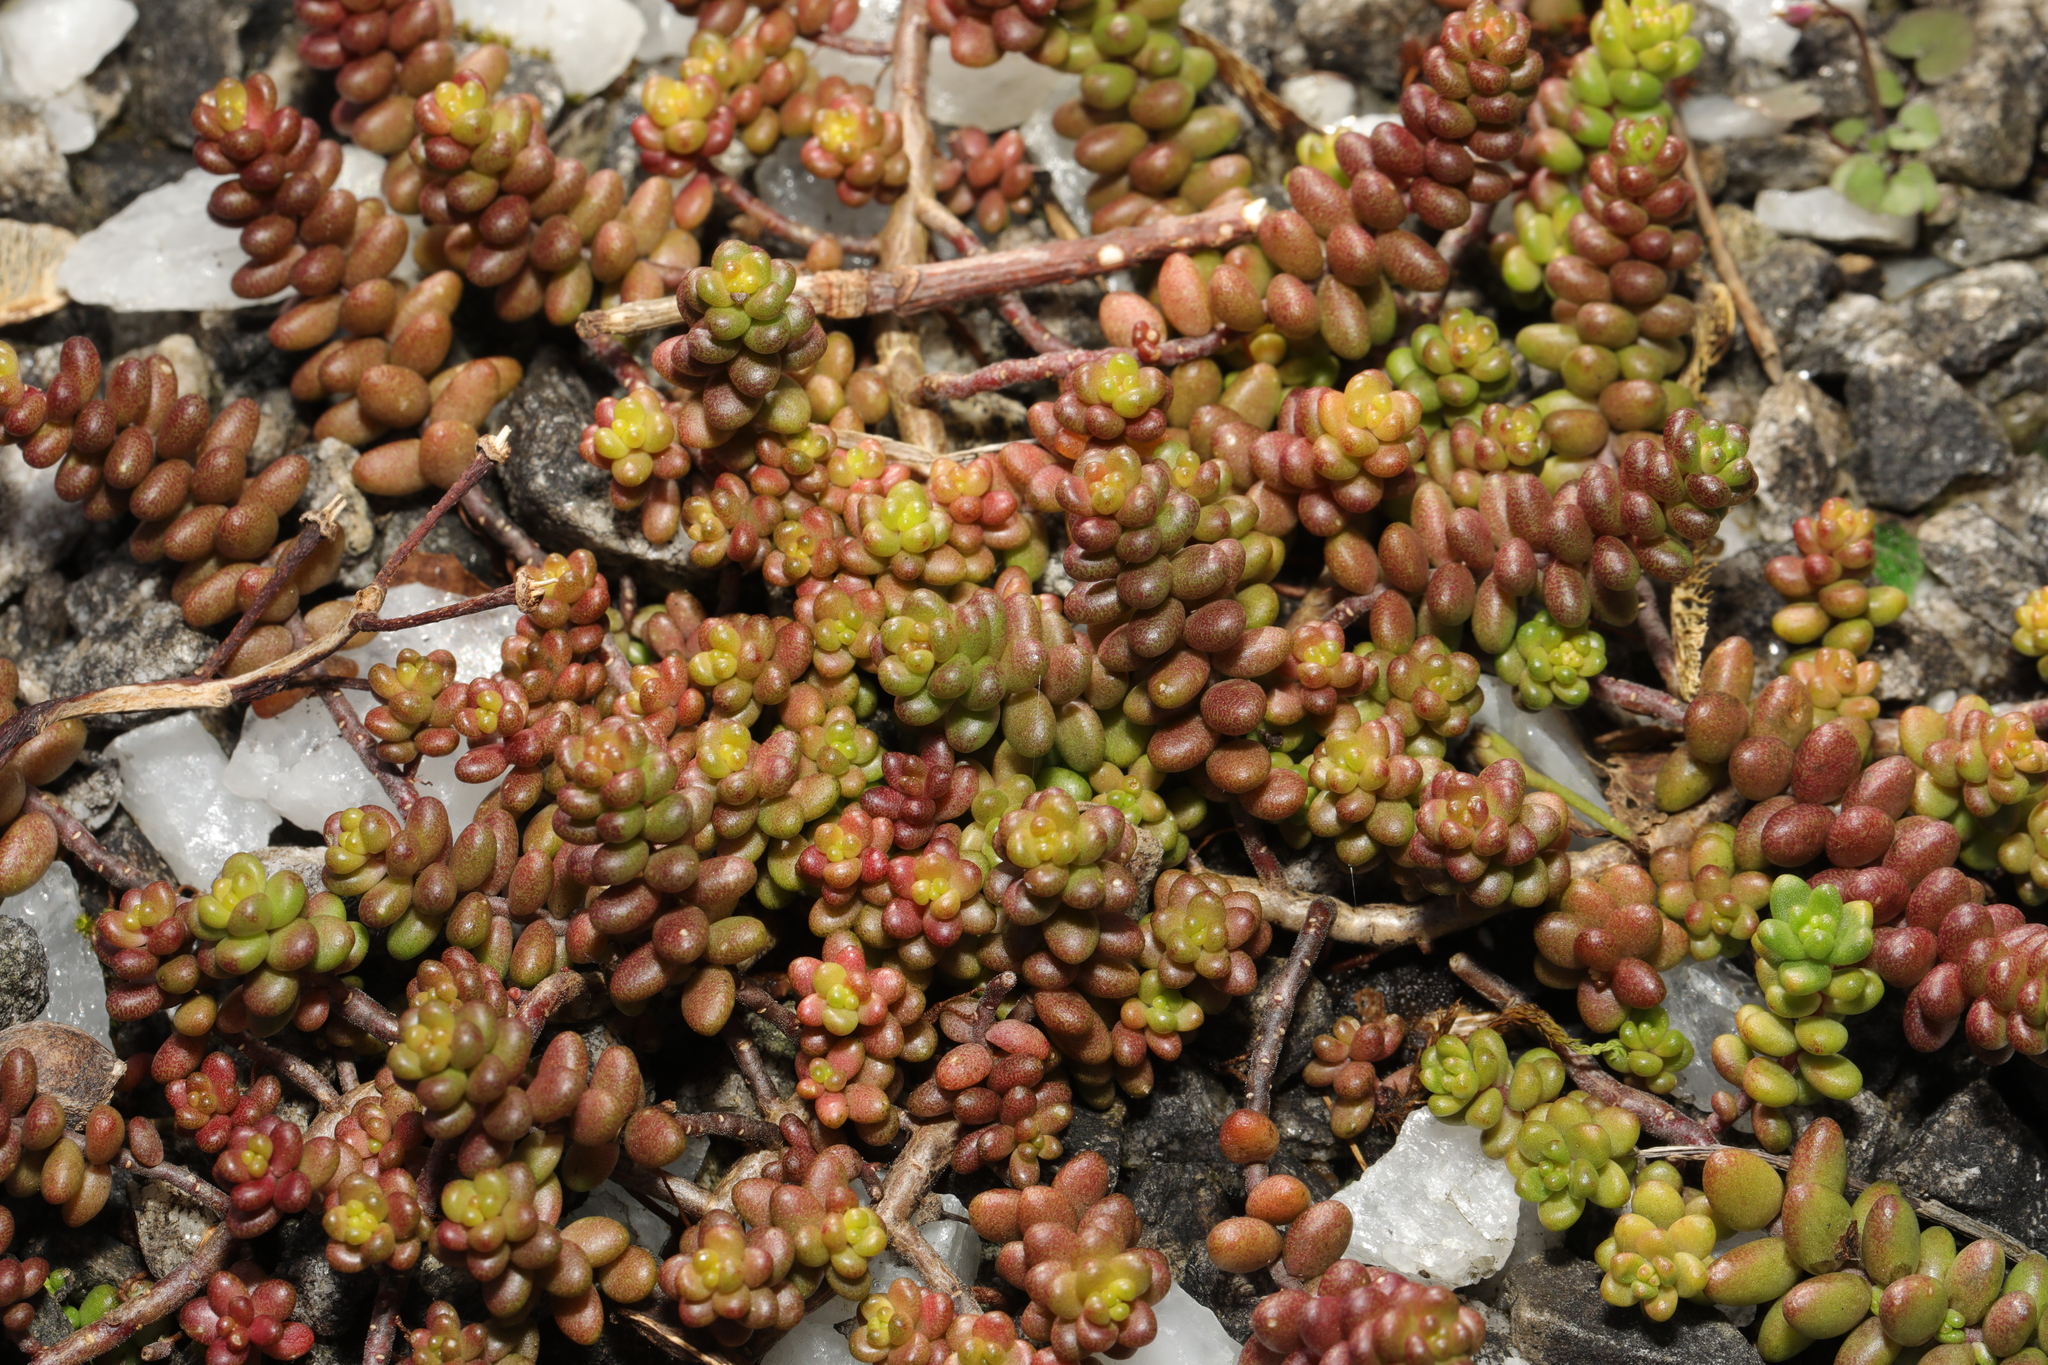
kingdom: Plantae
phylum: Tracheophyta
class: Magnoliopsida
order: Saxifragales
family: Crassulaceae
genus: Sedum
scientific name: Sedum album
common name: White stonecrop
